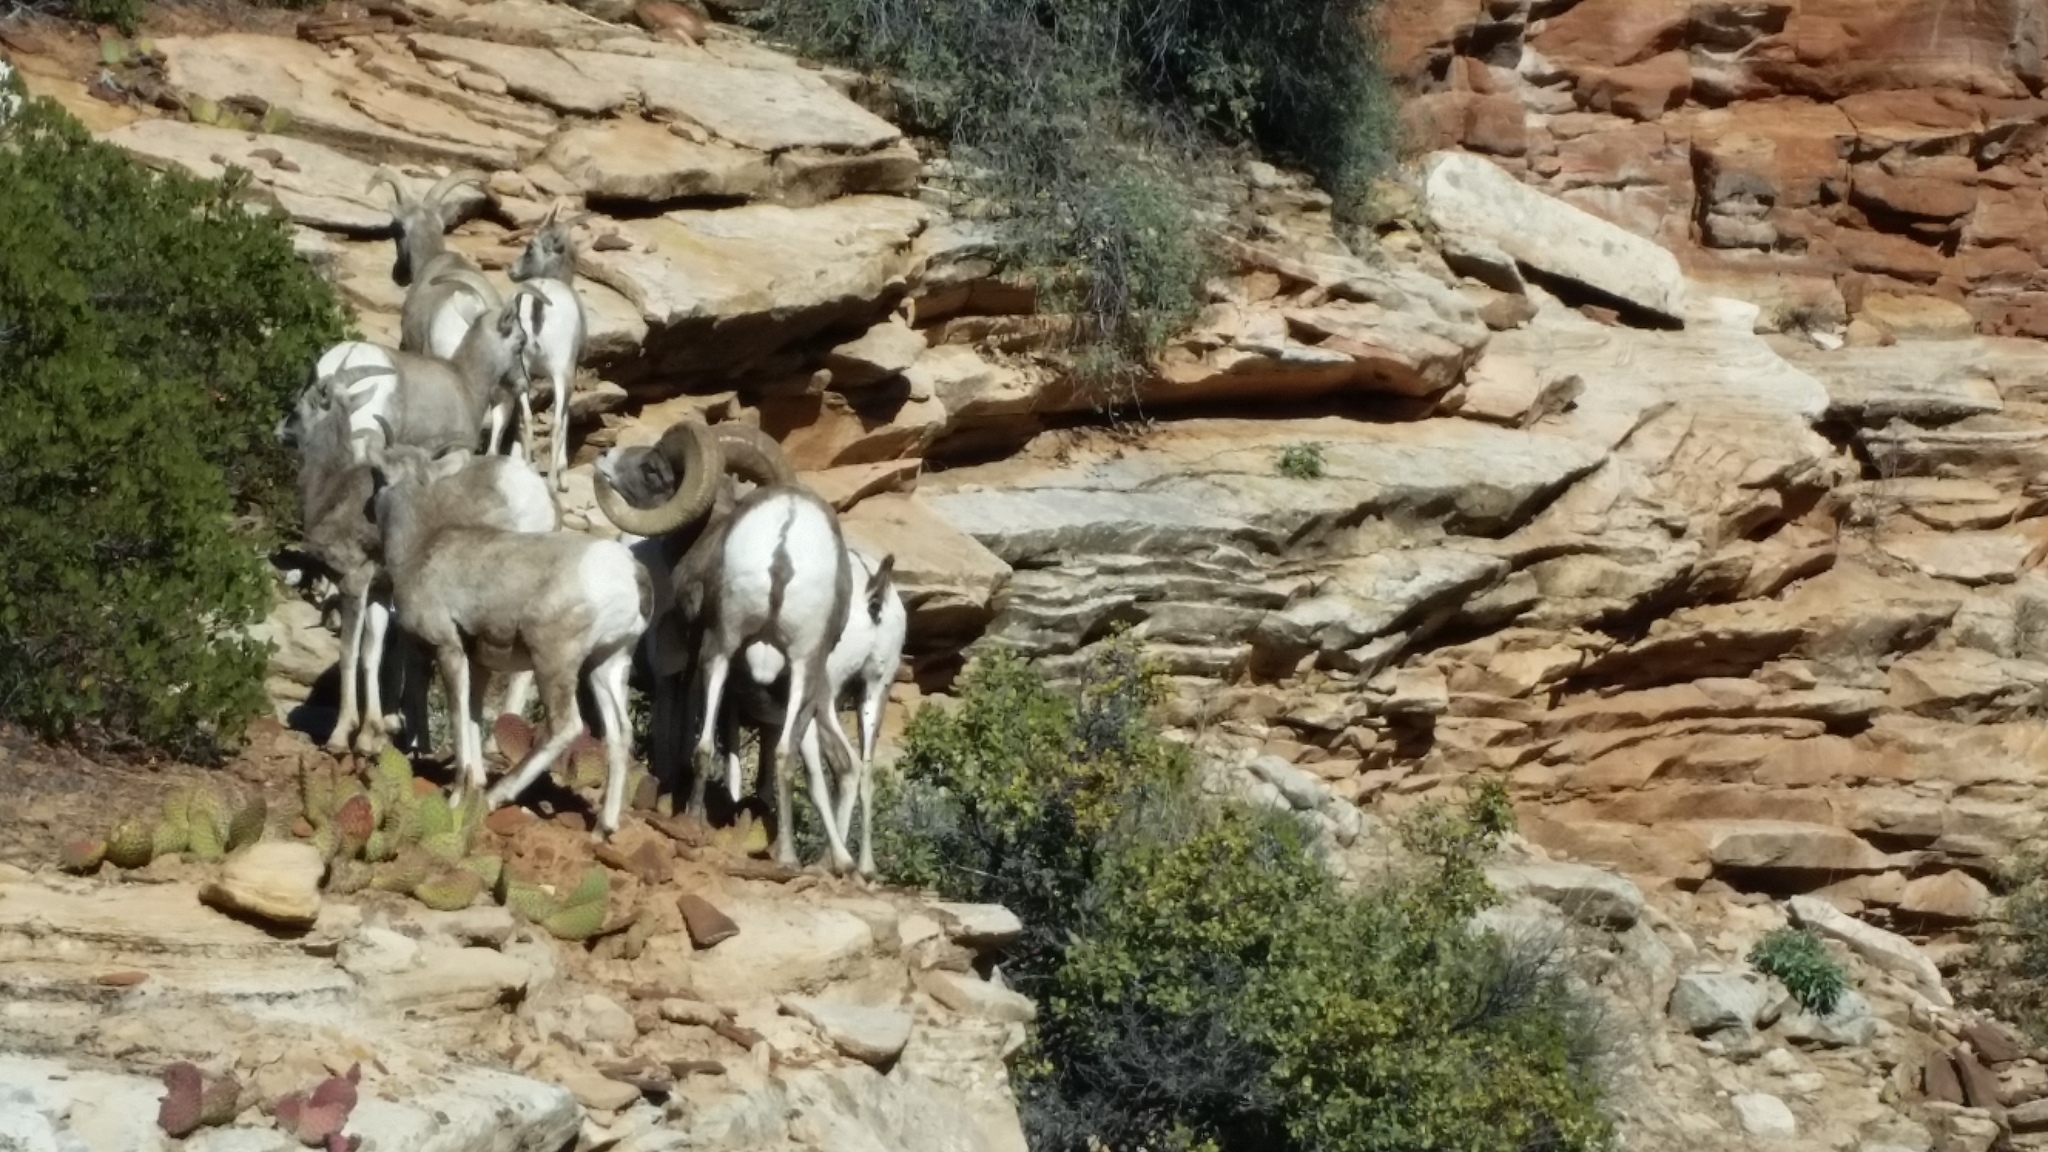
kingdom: Animalia
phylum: Chordata
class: Mammalia
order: Artiodactyla
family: Bovidae
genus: Ovis
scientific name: Ovis canadensis
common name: Bighorn sheep
